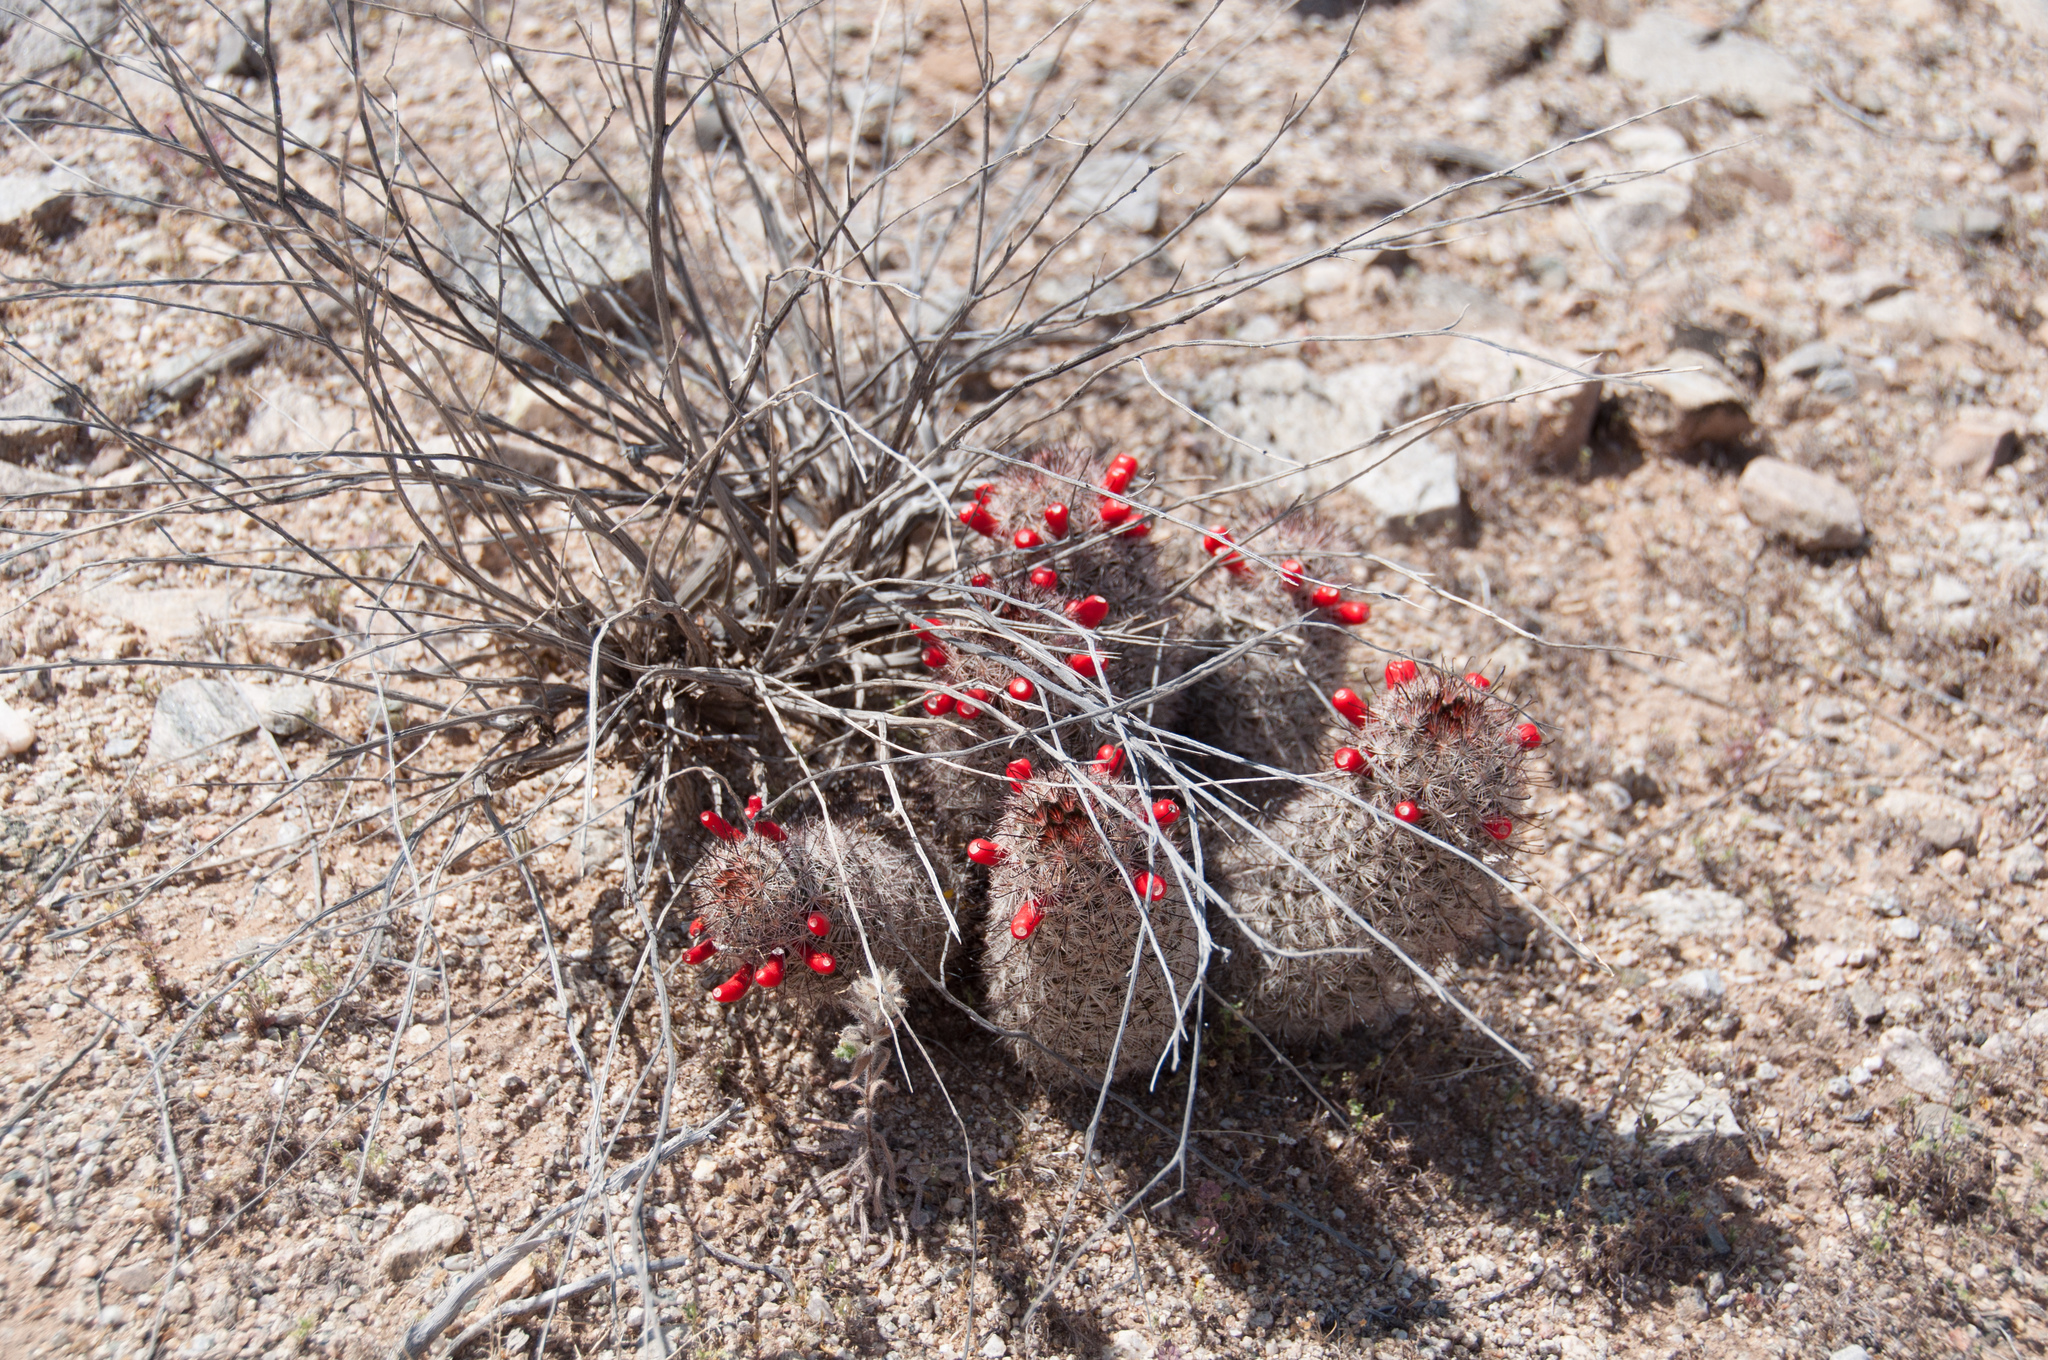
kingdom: Plantae
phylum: Tracheophyta
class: Magnoliopsida
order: Caryophyllales
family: Cactaceae
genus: Cochemiea
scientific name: Cochemiea grahamii
